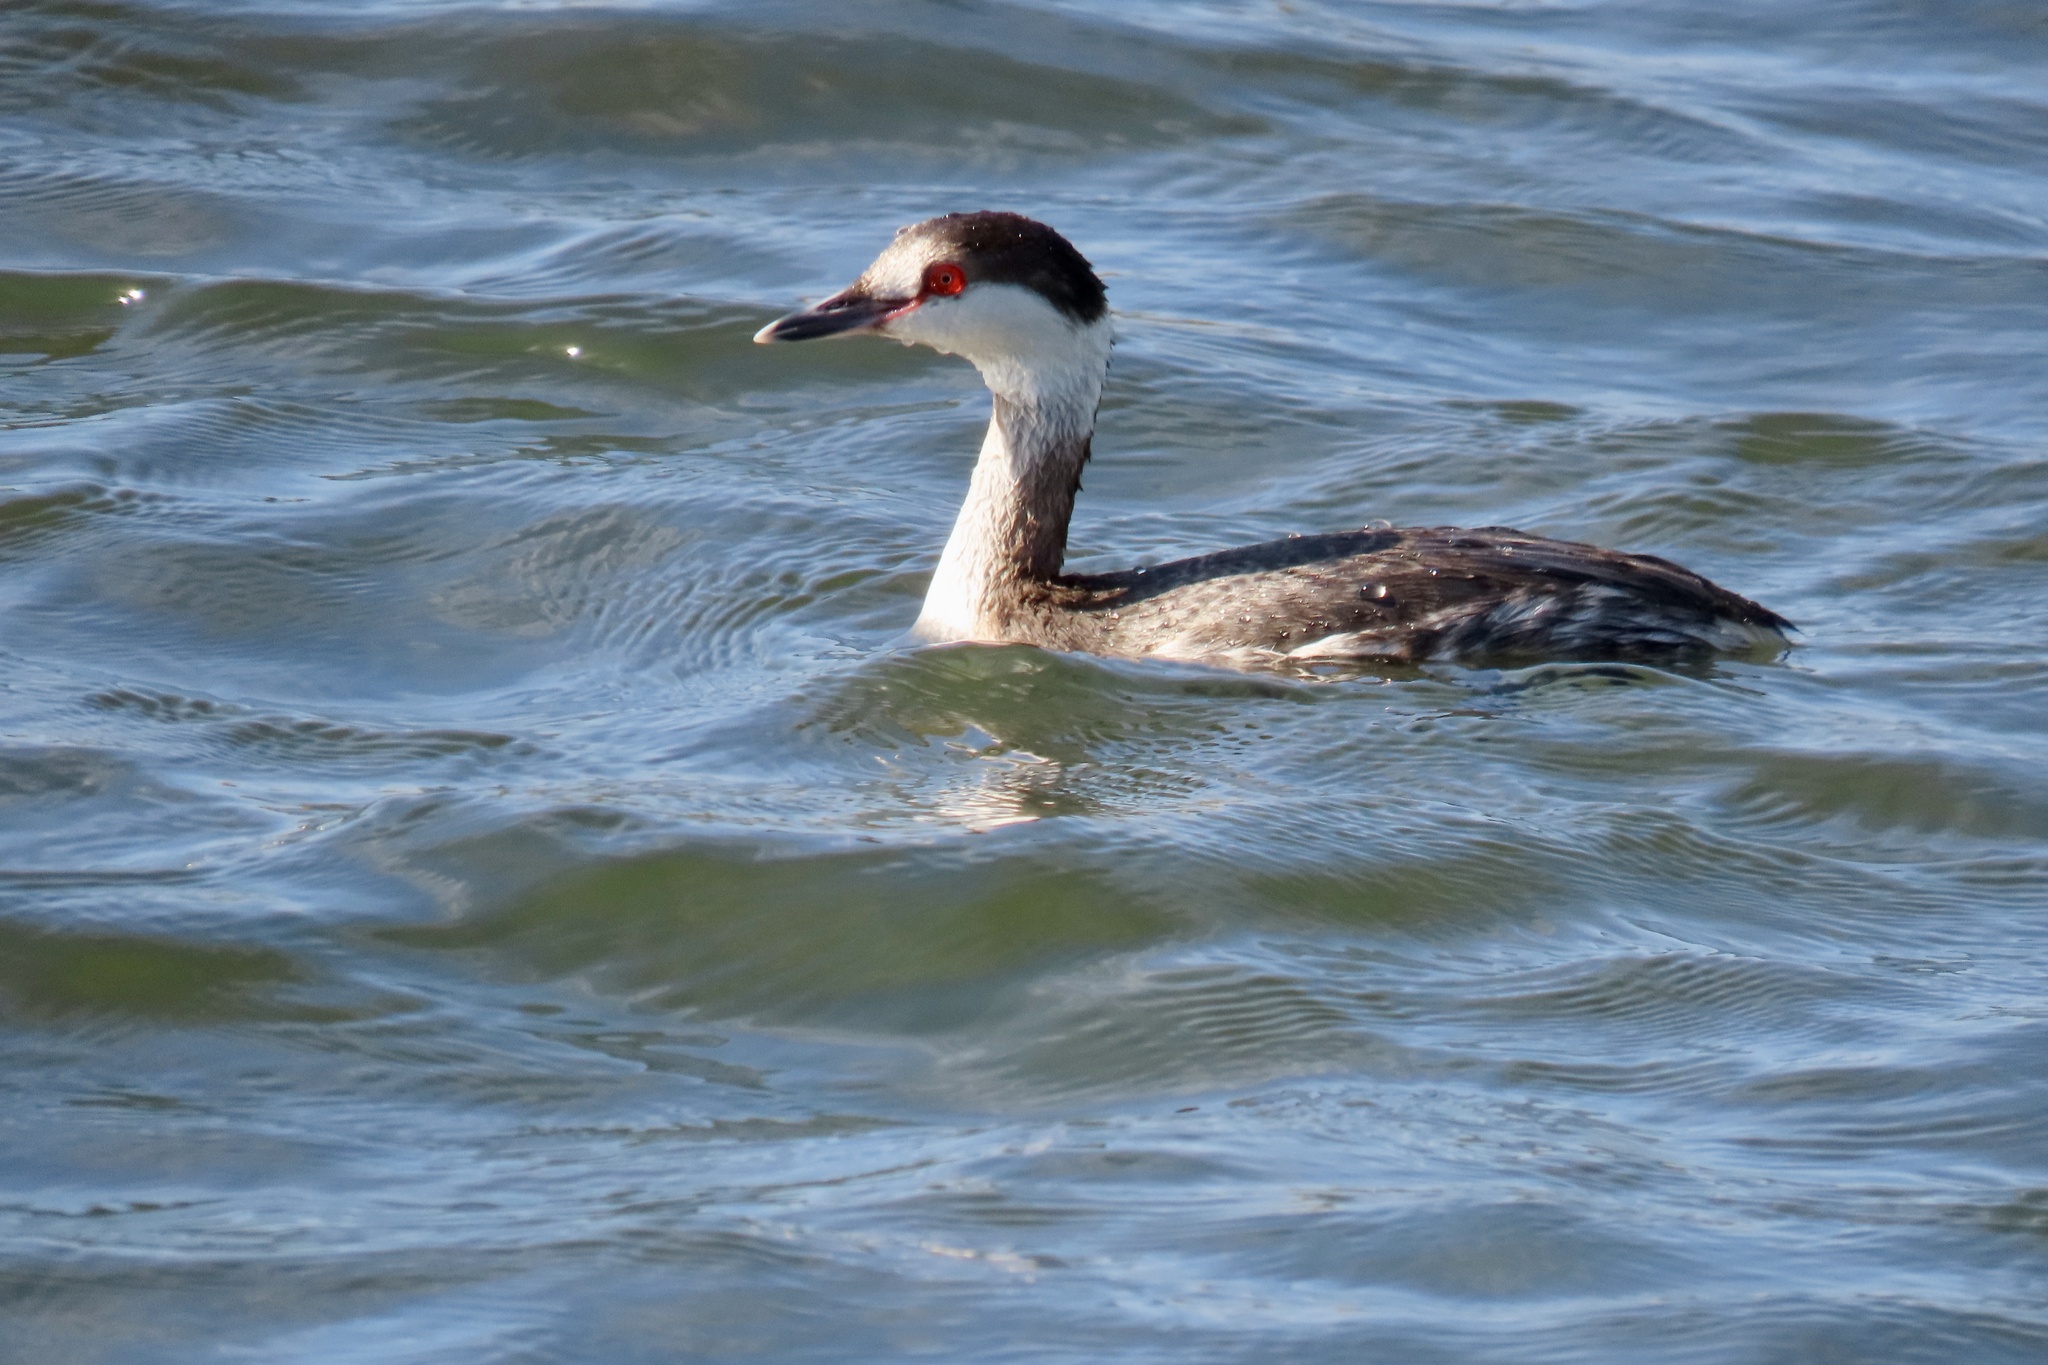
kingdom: Animalia
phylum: Chordata
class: Aves
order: Podicipediformes
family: Podicipedidae
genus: Podiceps
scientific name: Podiceps auritus
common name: Horned grebe
